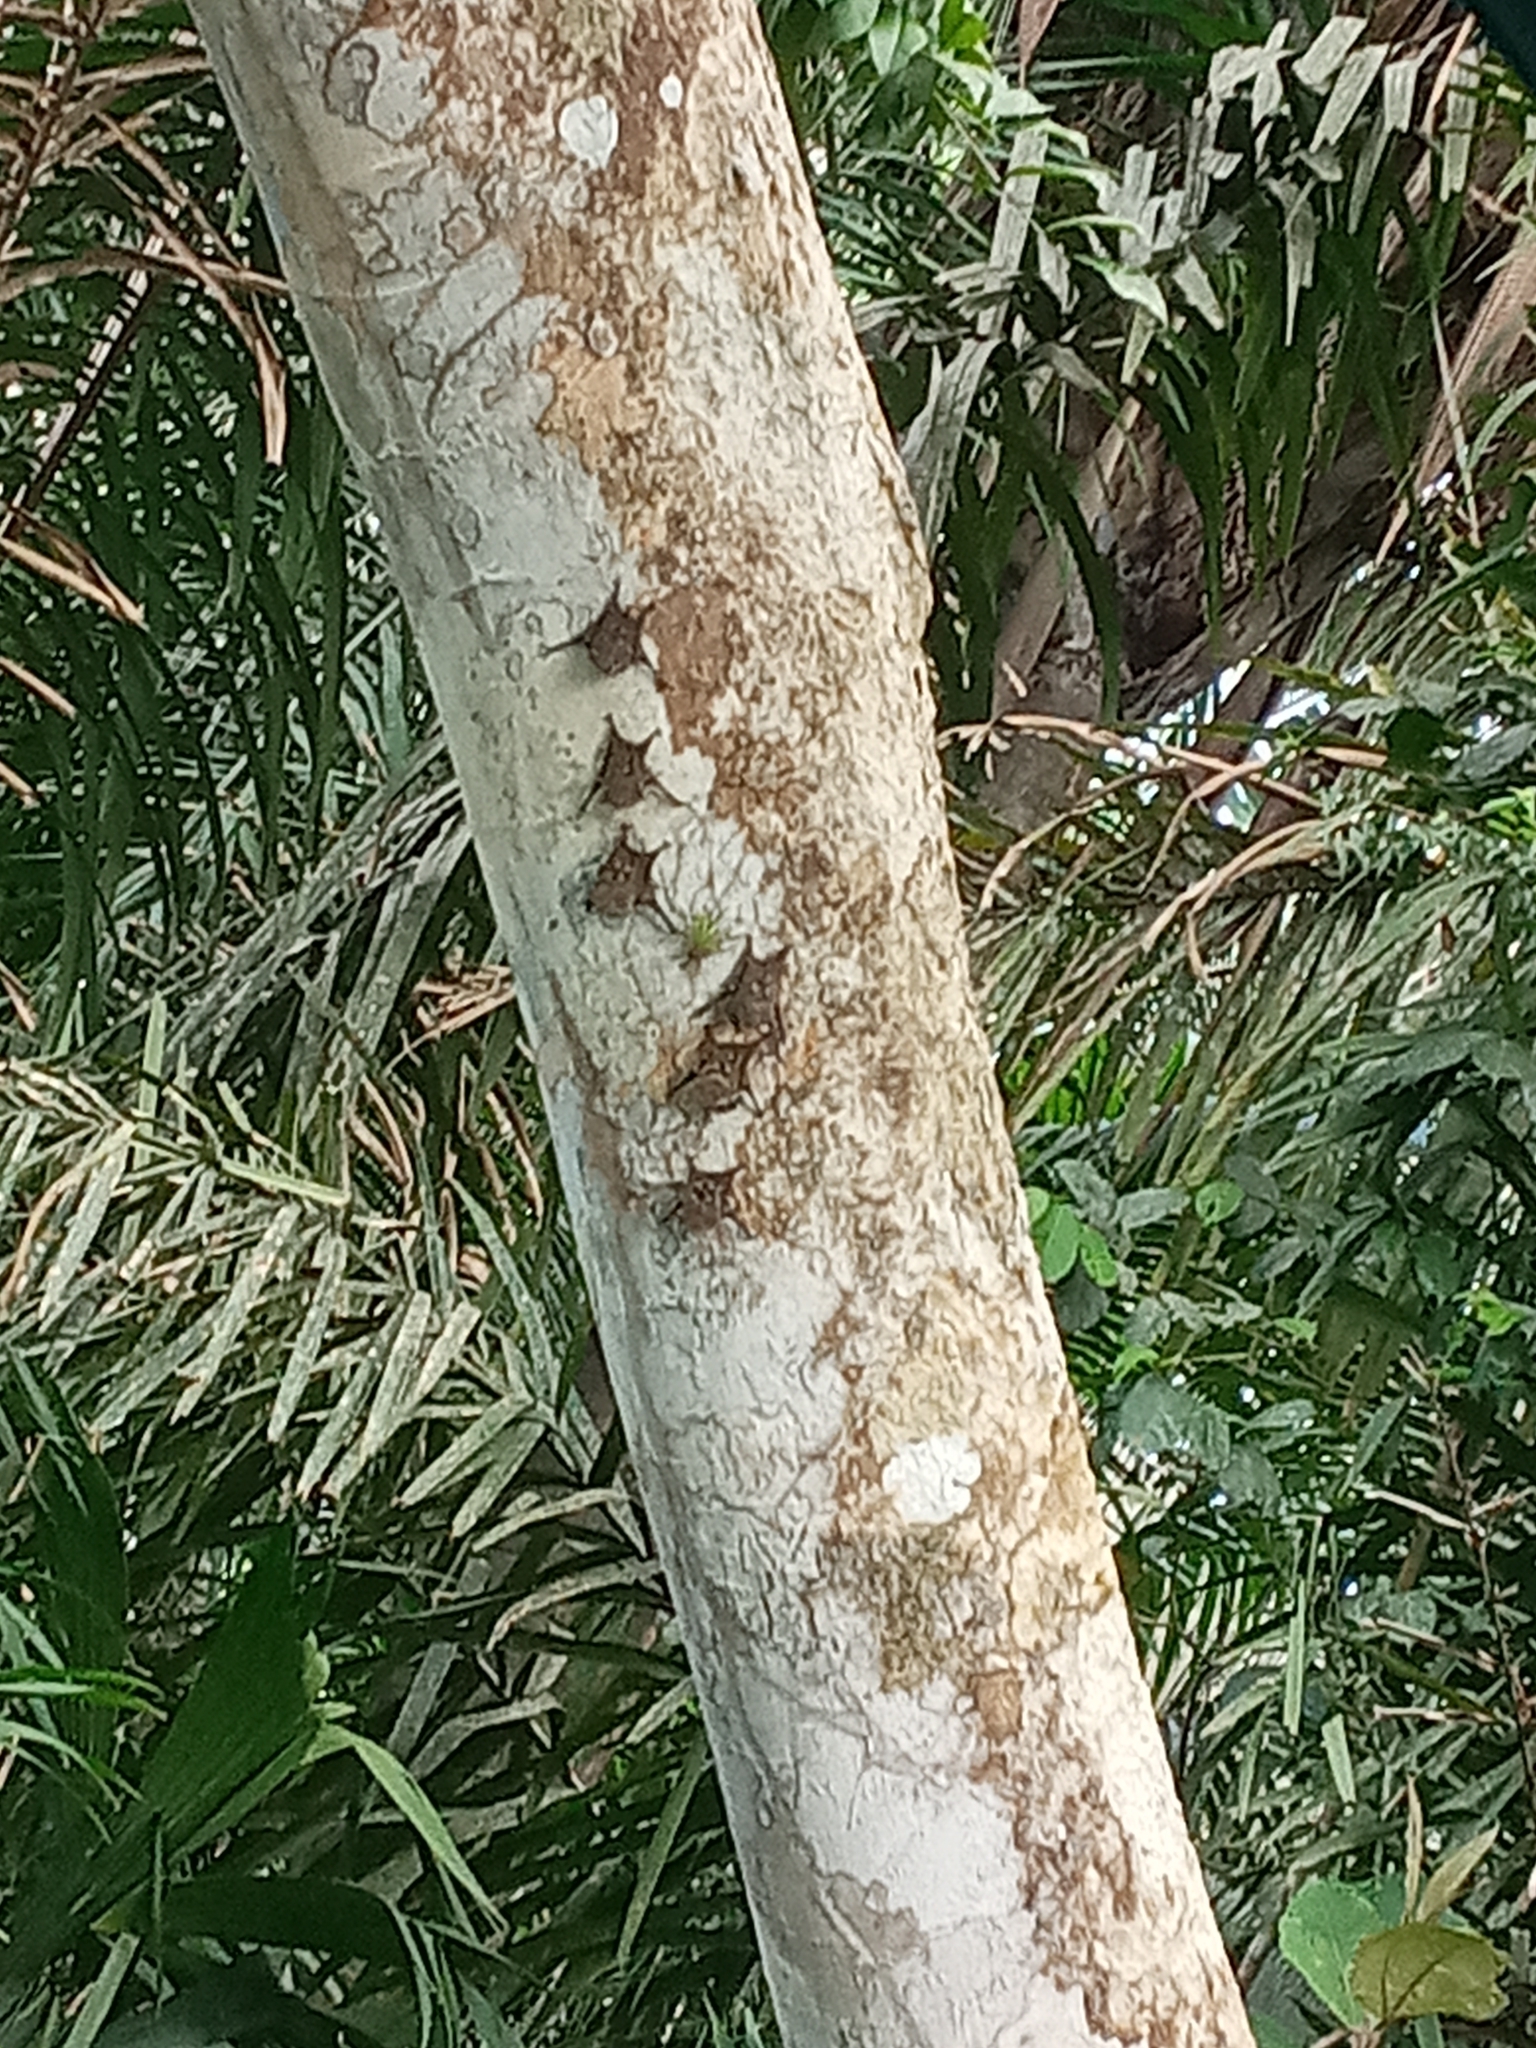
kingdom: Animalia
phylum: Chordata
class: Mammalia
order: Chiroptera
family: Emballonuridae
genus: Rhynchonycteris
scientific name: Rhynchonycteris naso
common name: Proboscis bat
